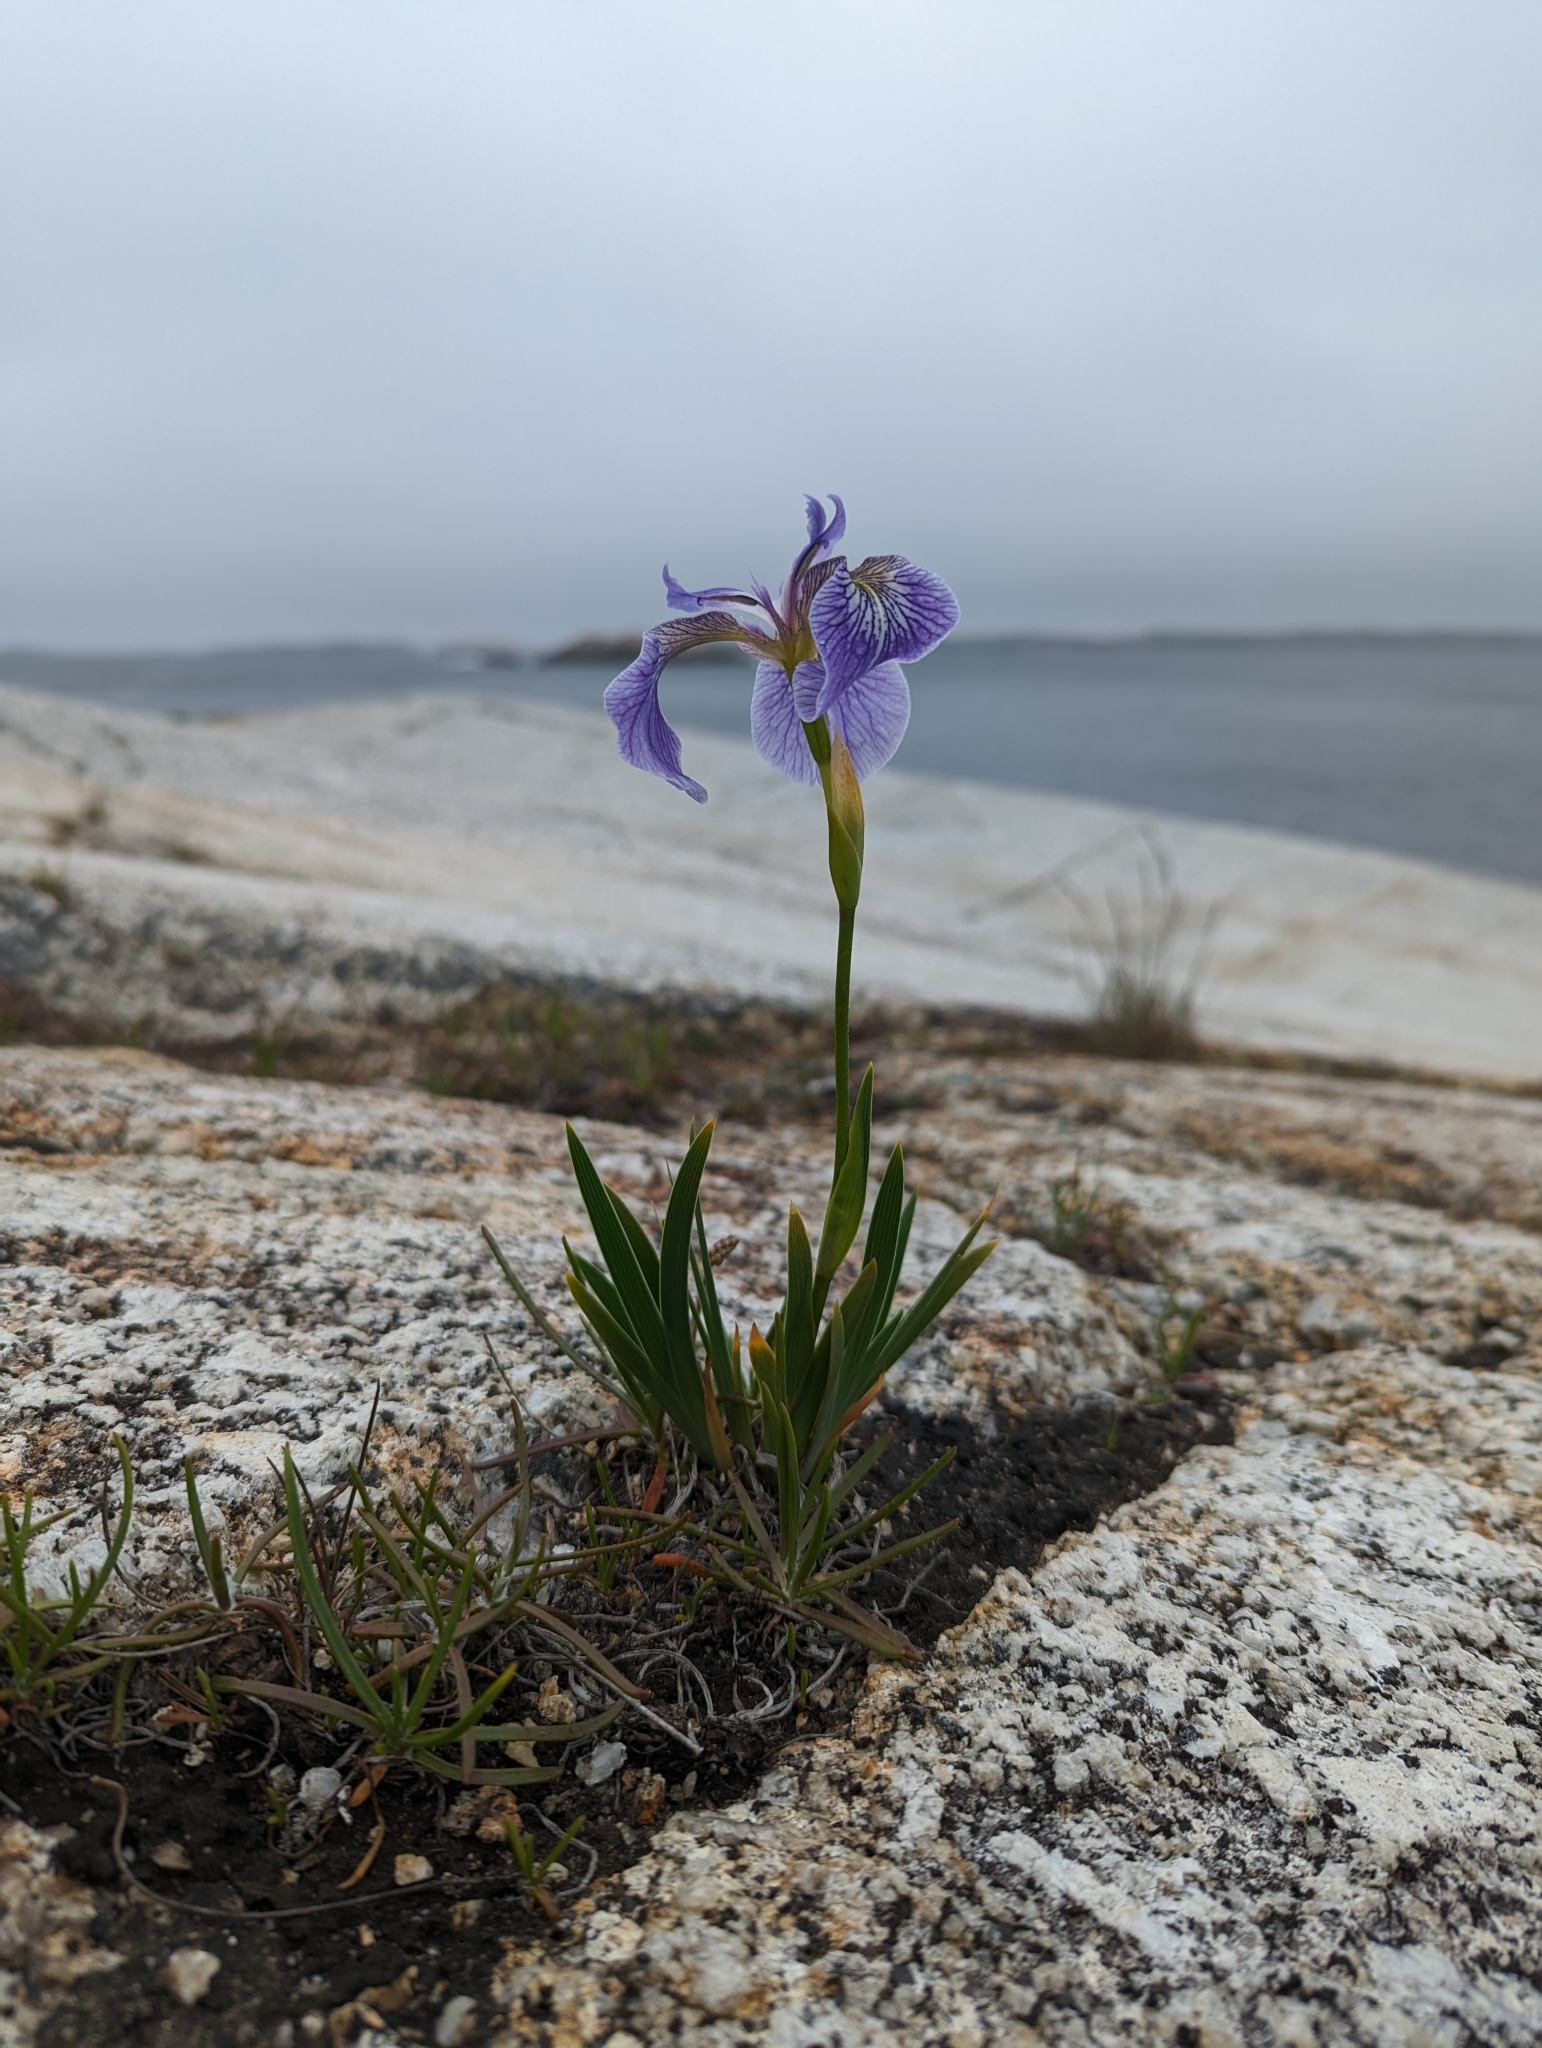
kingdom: Plantae
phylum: Tracheophyta
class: Liliopsida
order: Asparagales
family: Iridaceae
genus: Iris
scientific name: Iris hookeri
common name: Canada beach-head iris
